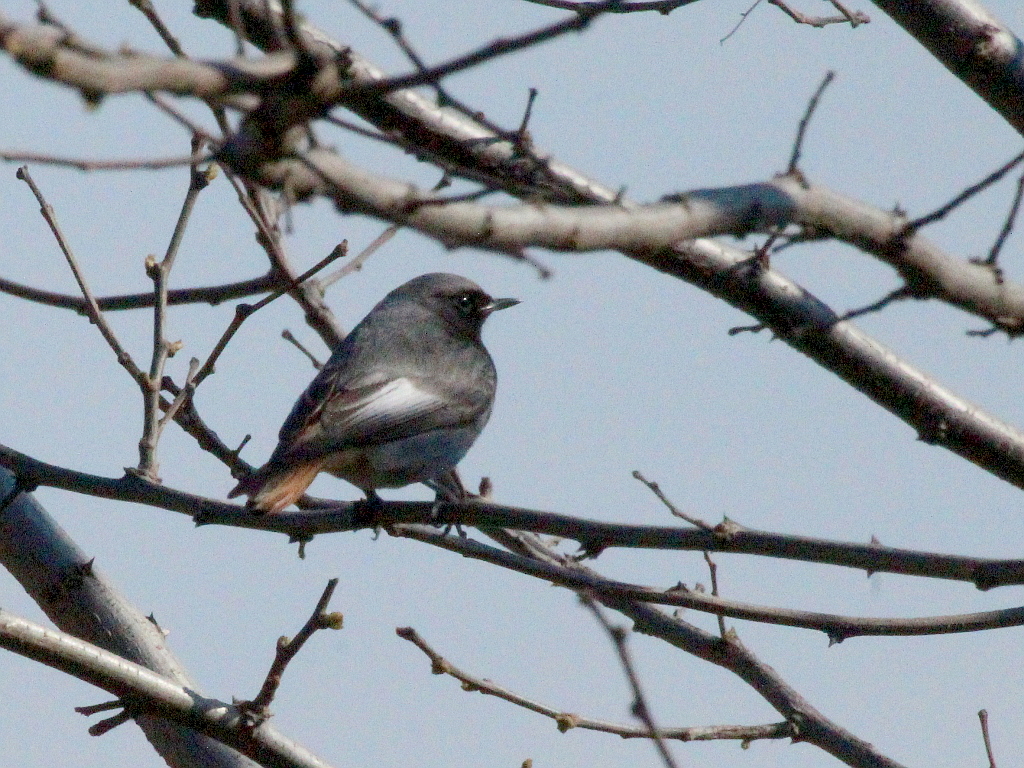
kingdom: Animalia
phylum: Chordata
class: Aves
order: Passeriformes
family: Muscicapidae
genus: Phoenicurus
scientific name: Phoenicurus ochruros
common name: Black redstart
